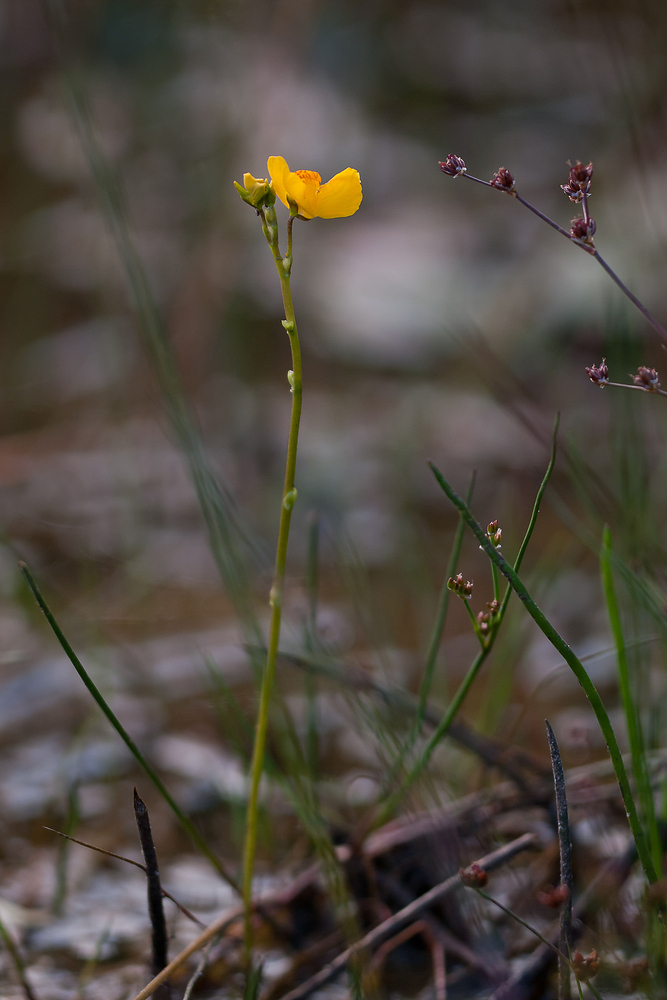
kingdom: Plantae
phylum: Tracheophyta
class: Magnoliopsida
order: Lamiales
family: Lentibulariaceae
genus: Utricularia
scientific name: Utricularia australis
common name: Bladderwort
